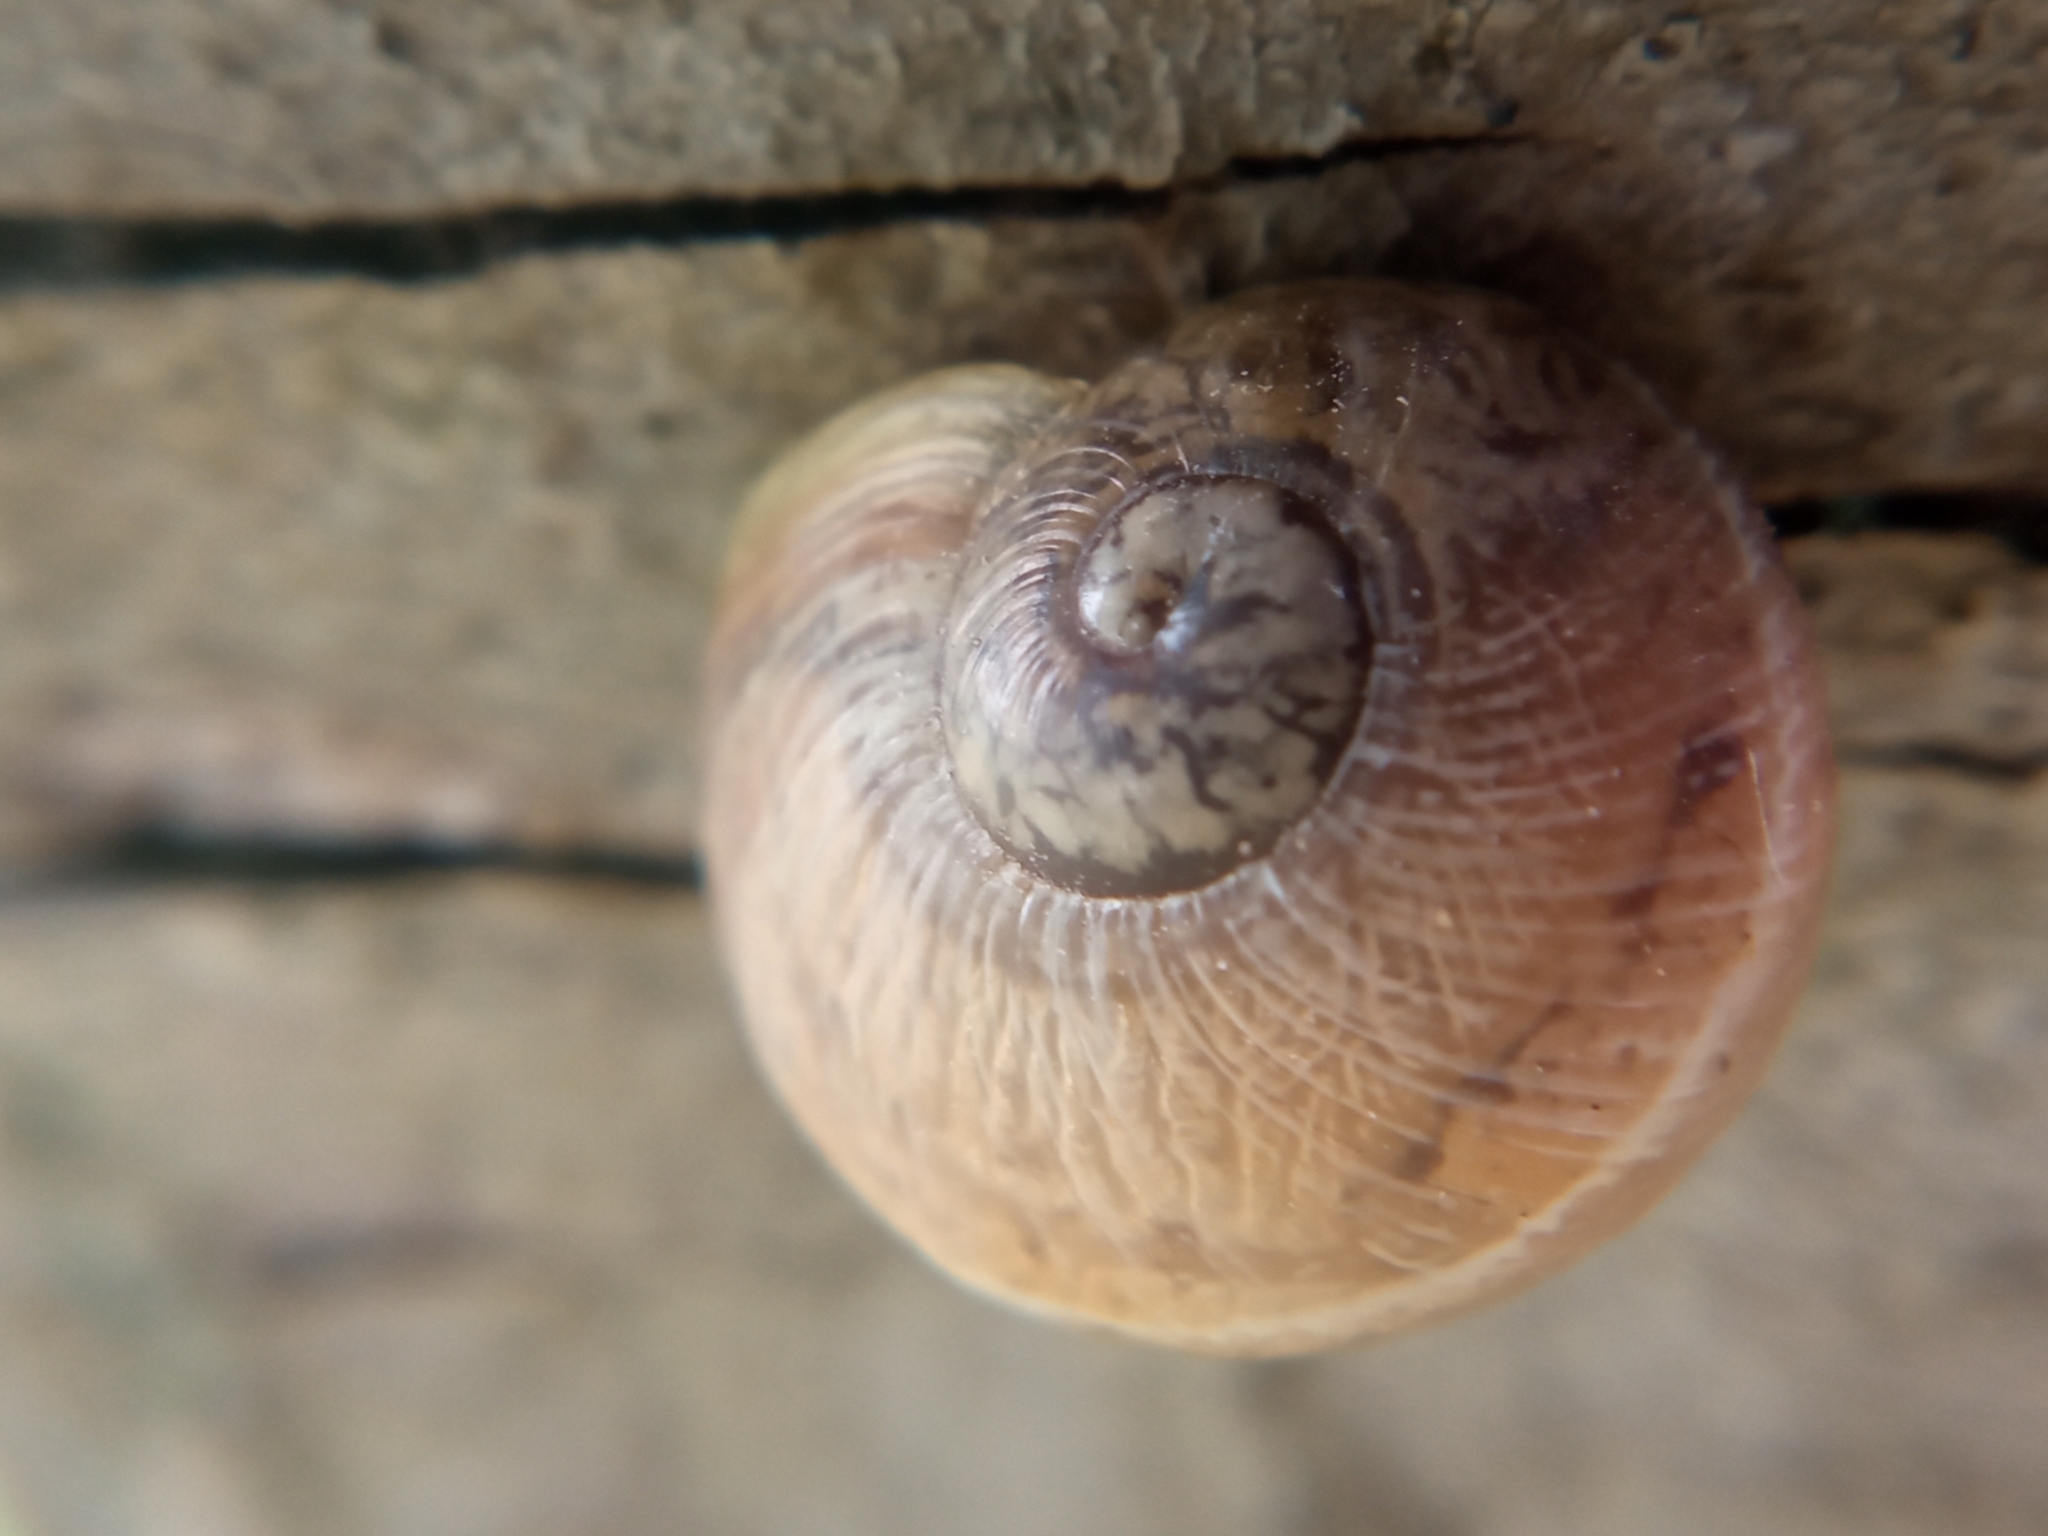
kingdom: Animalia
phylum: Mollusca
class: Gastropoda
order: Stylommatophora
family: Helicidae
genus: Cornu
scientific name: Cornu aspersum
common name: Brown garden snail
